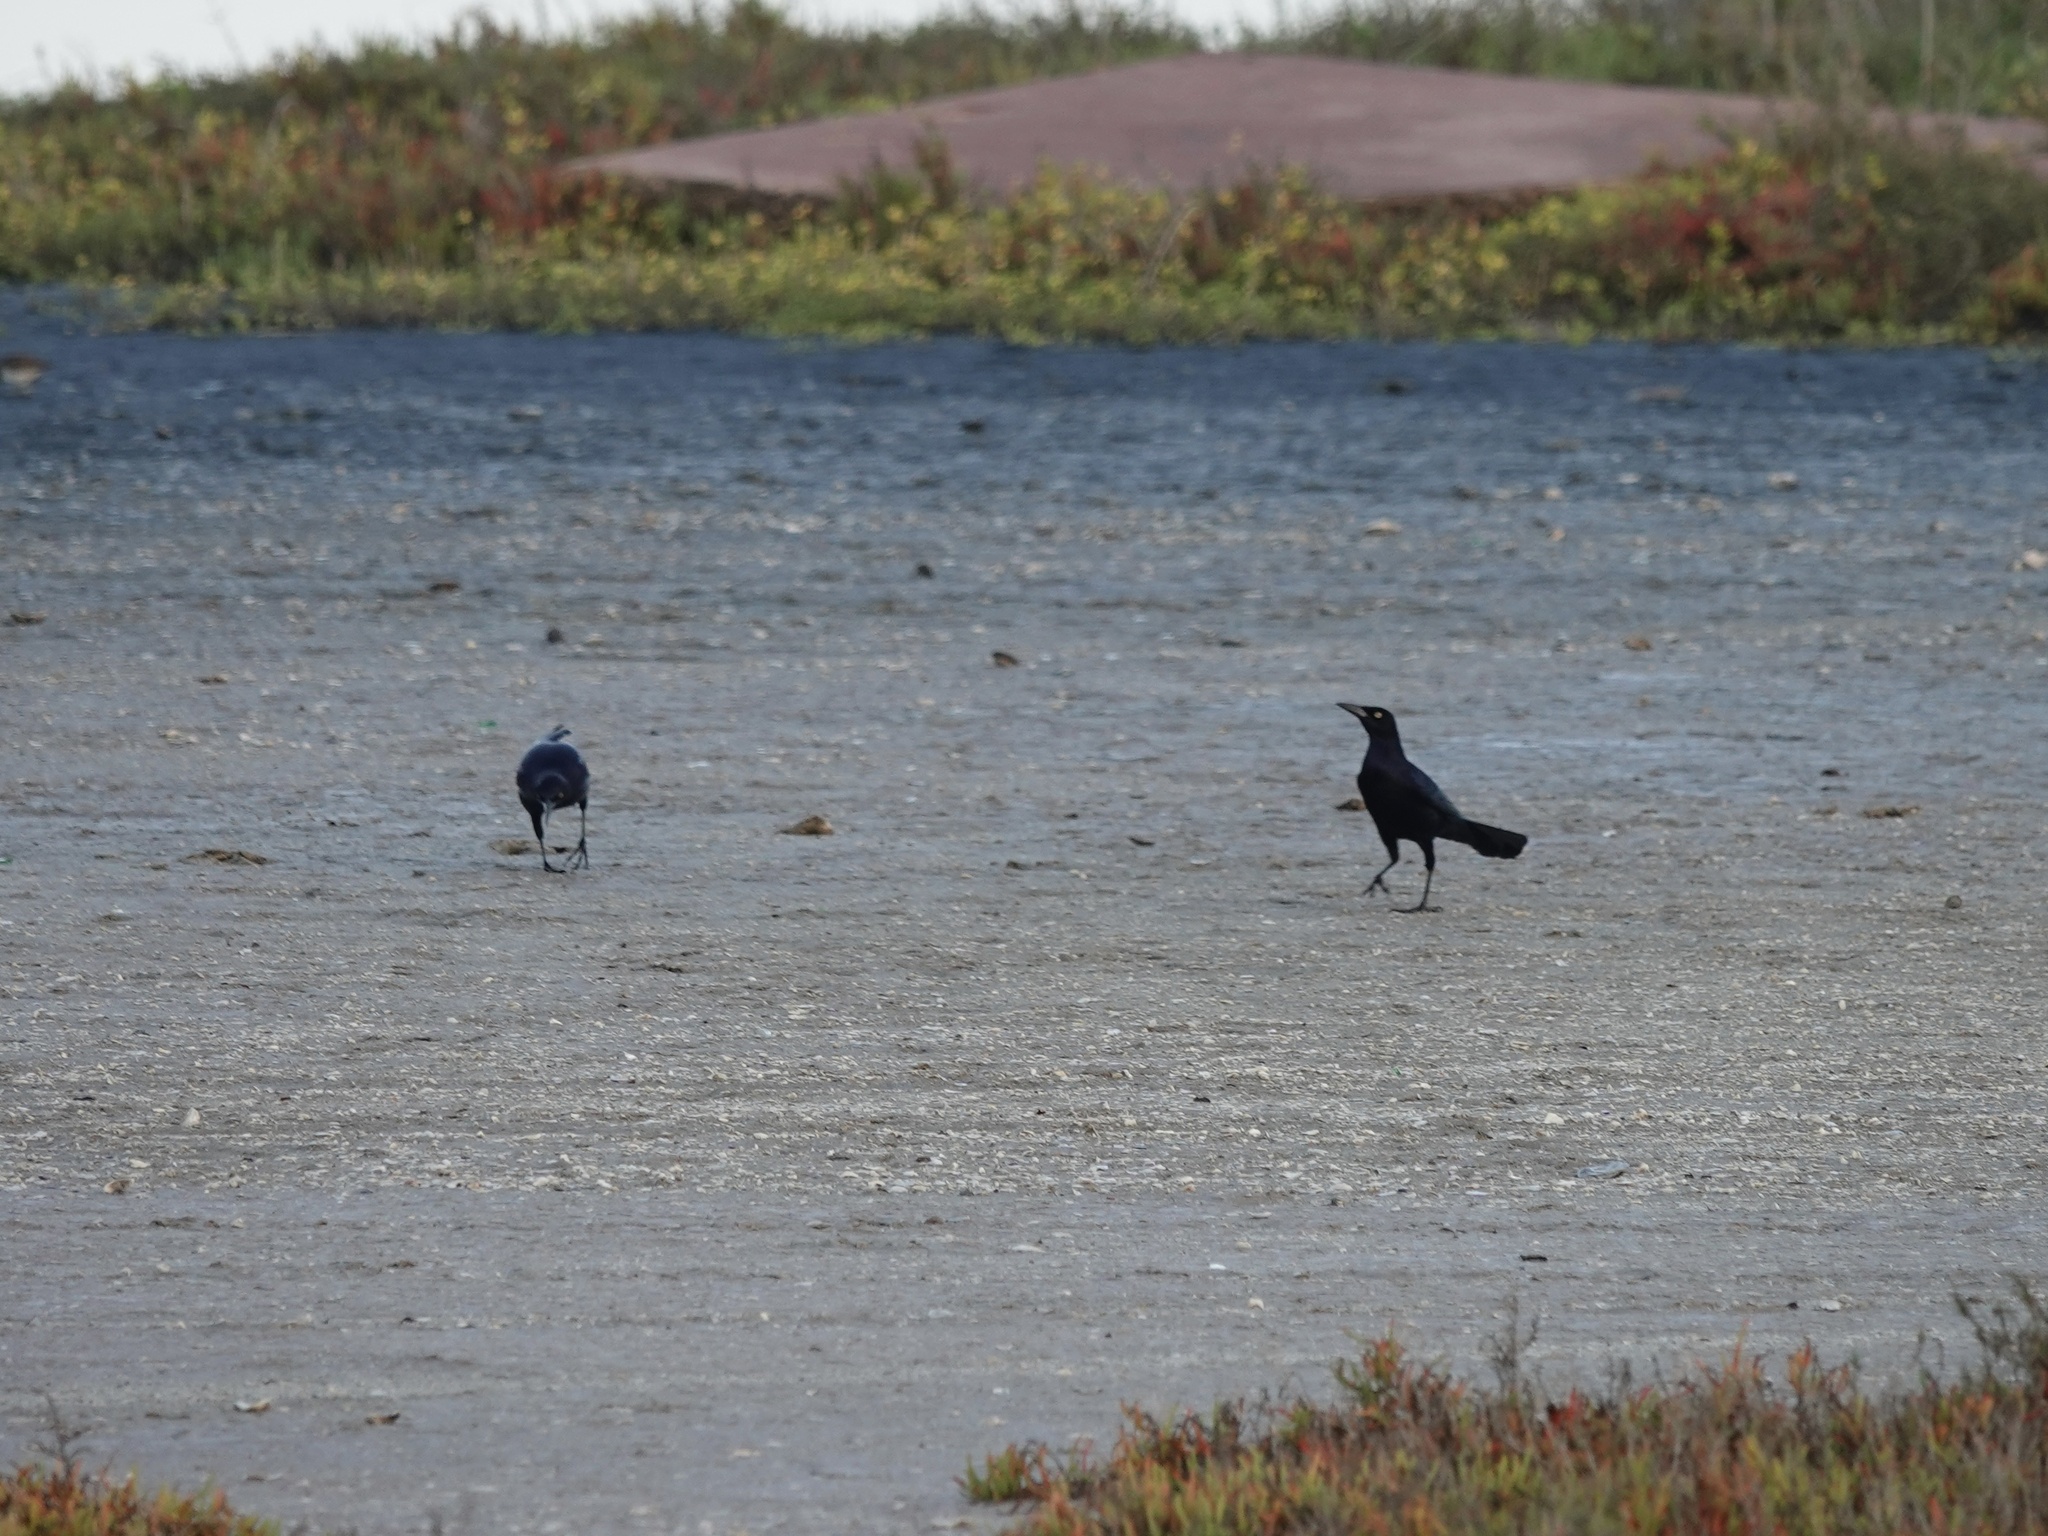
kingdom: Animalia
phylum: Chordata
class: Aves
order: Passeriformes
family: Icteridae
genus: Quiscalus
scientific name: Quiscalus mexicanus
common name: Great-tailed grackle
